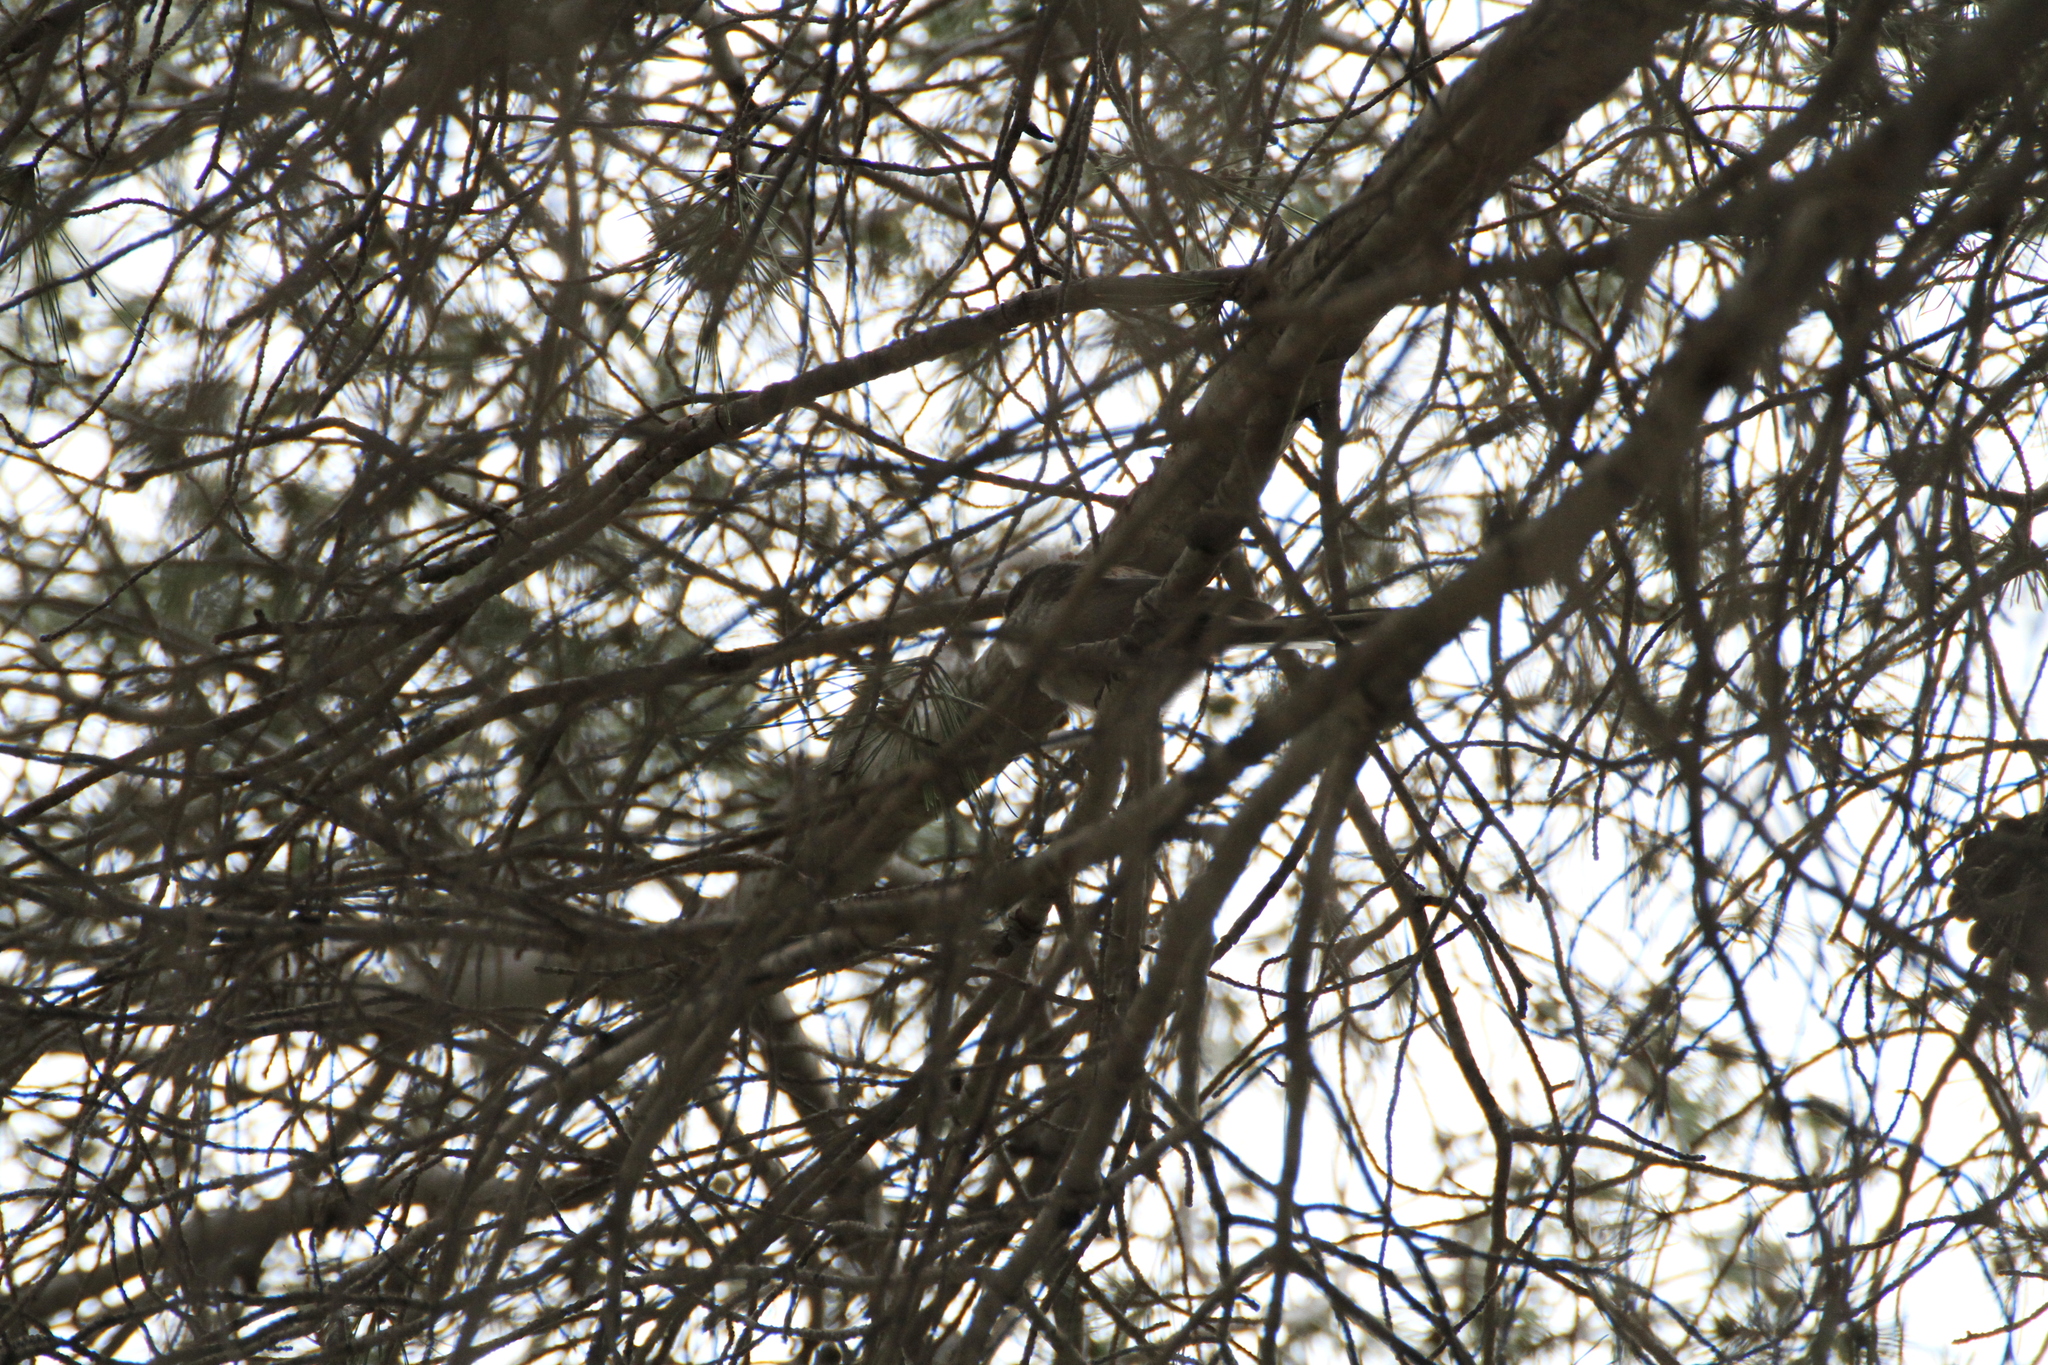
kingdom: Animalia
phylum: Chordata
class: Aves
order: Passeriformes
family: Aegithalidae
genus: Aegithalos
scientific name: Aegithalos caudatus
